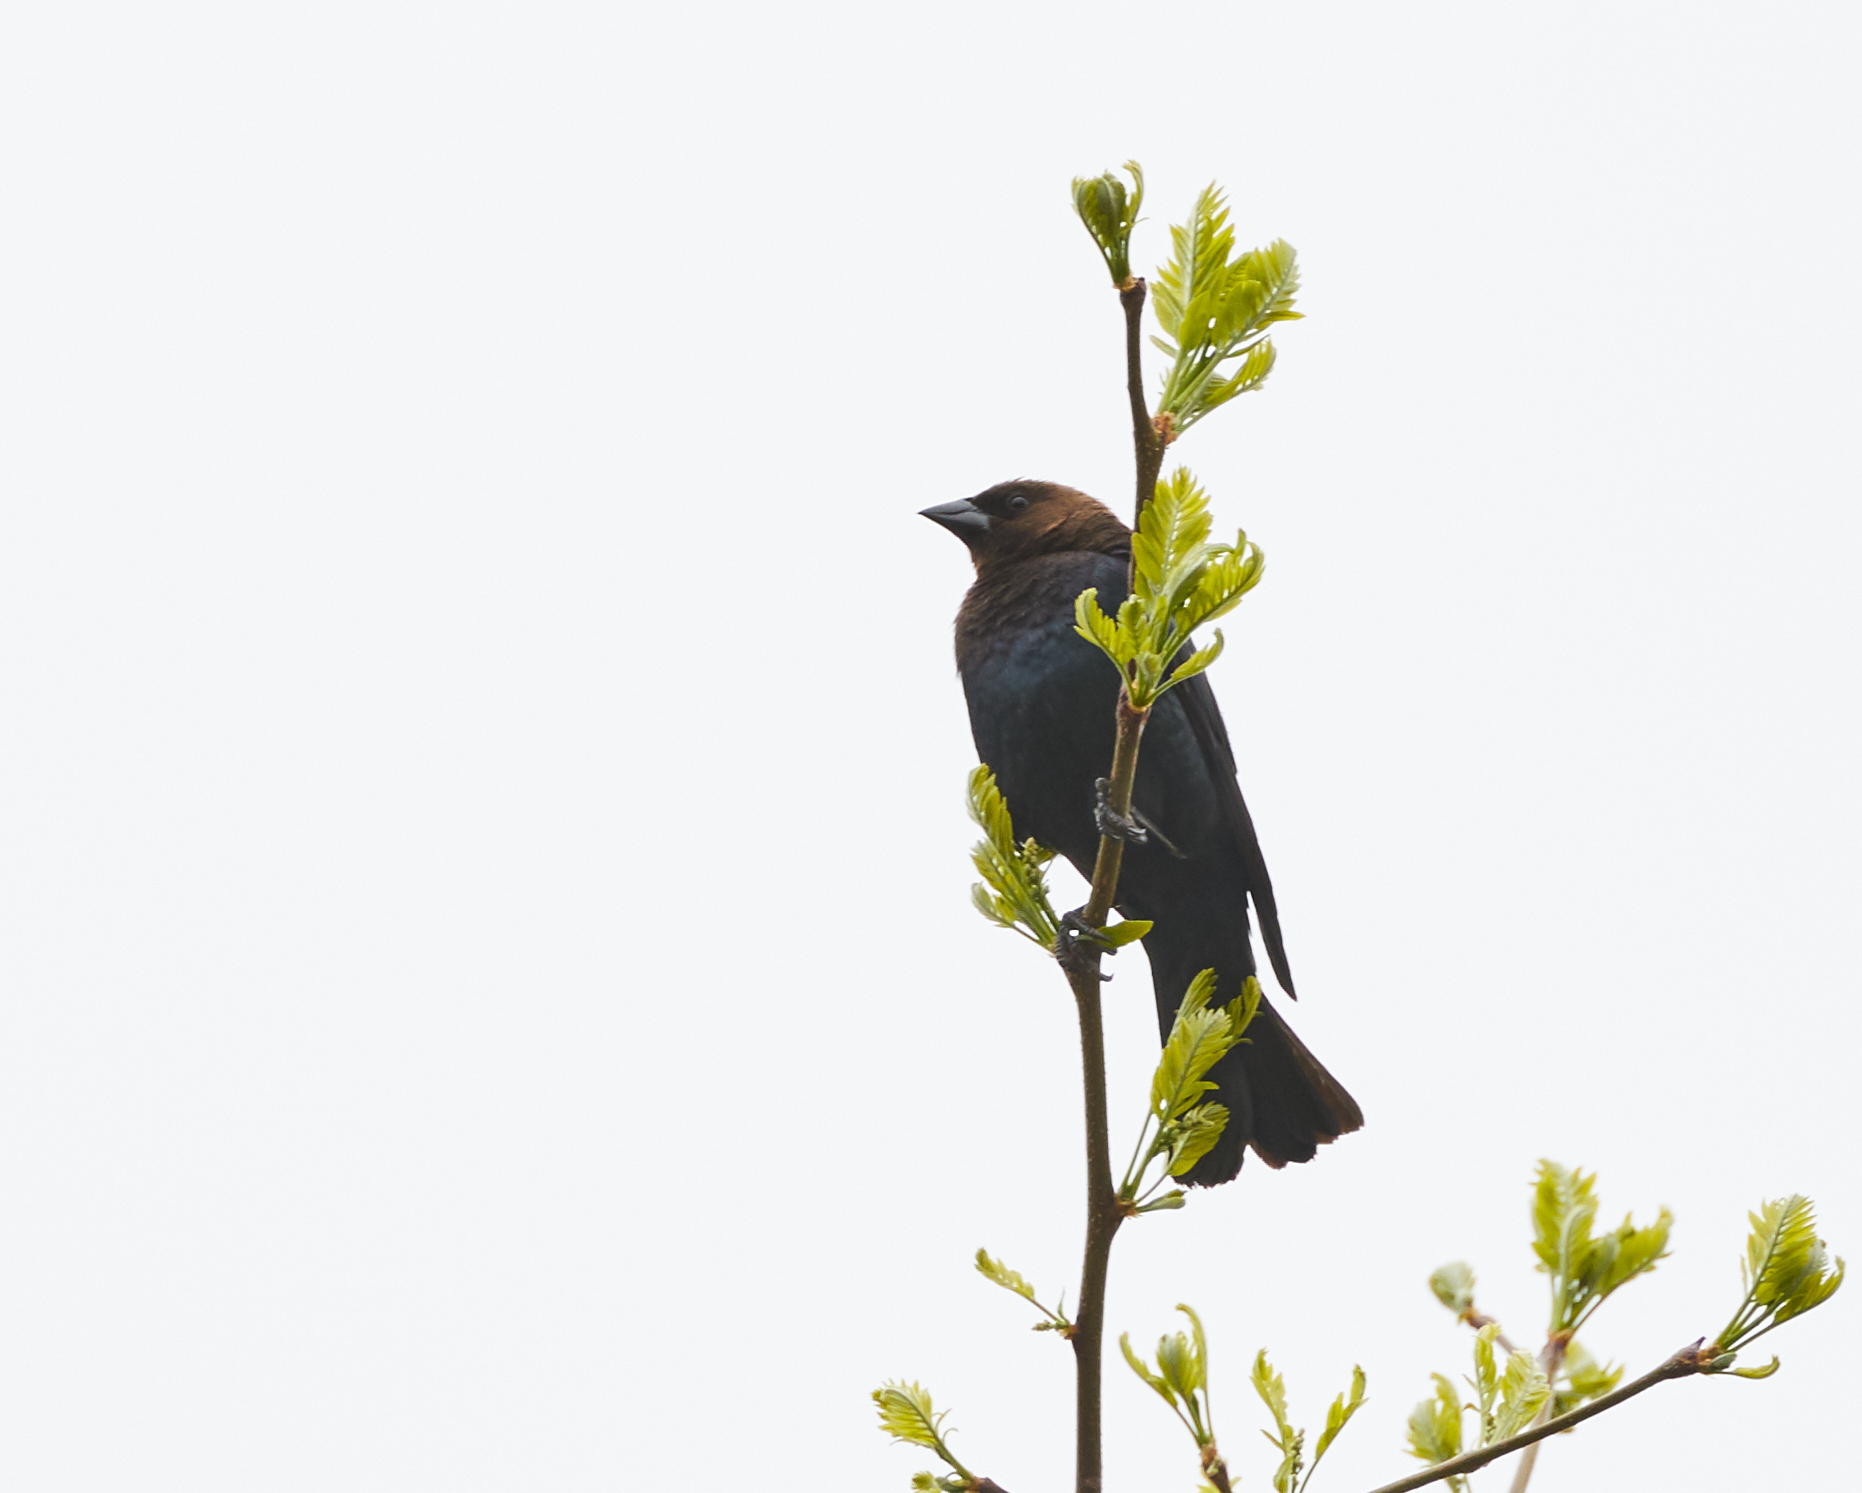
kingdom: Animalia
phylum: Chordata
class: Aves
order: Passeriformes
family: Icteridae
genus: Molothrus
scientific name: Molothrus ater
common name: Brown-headed cowbird
